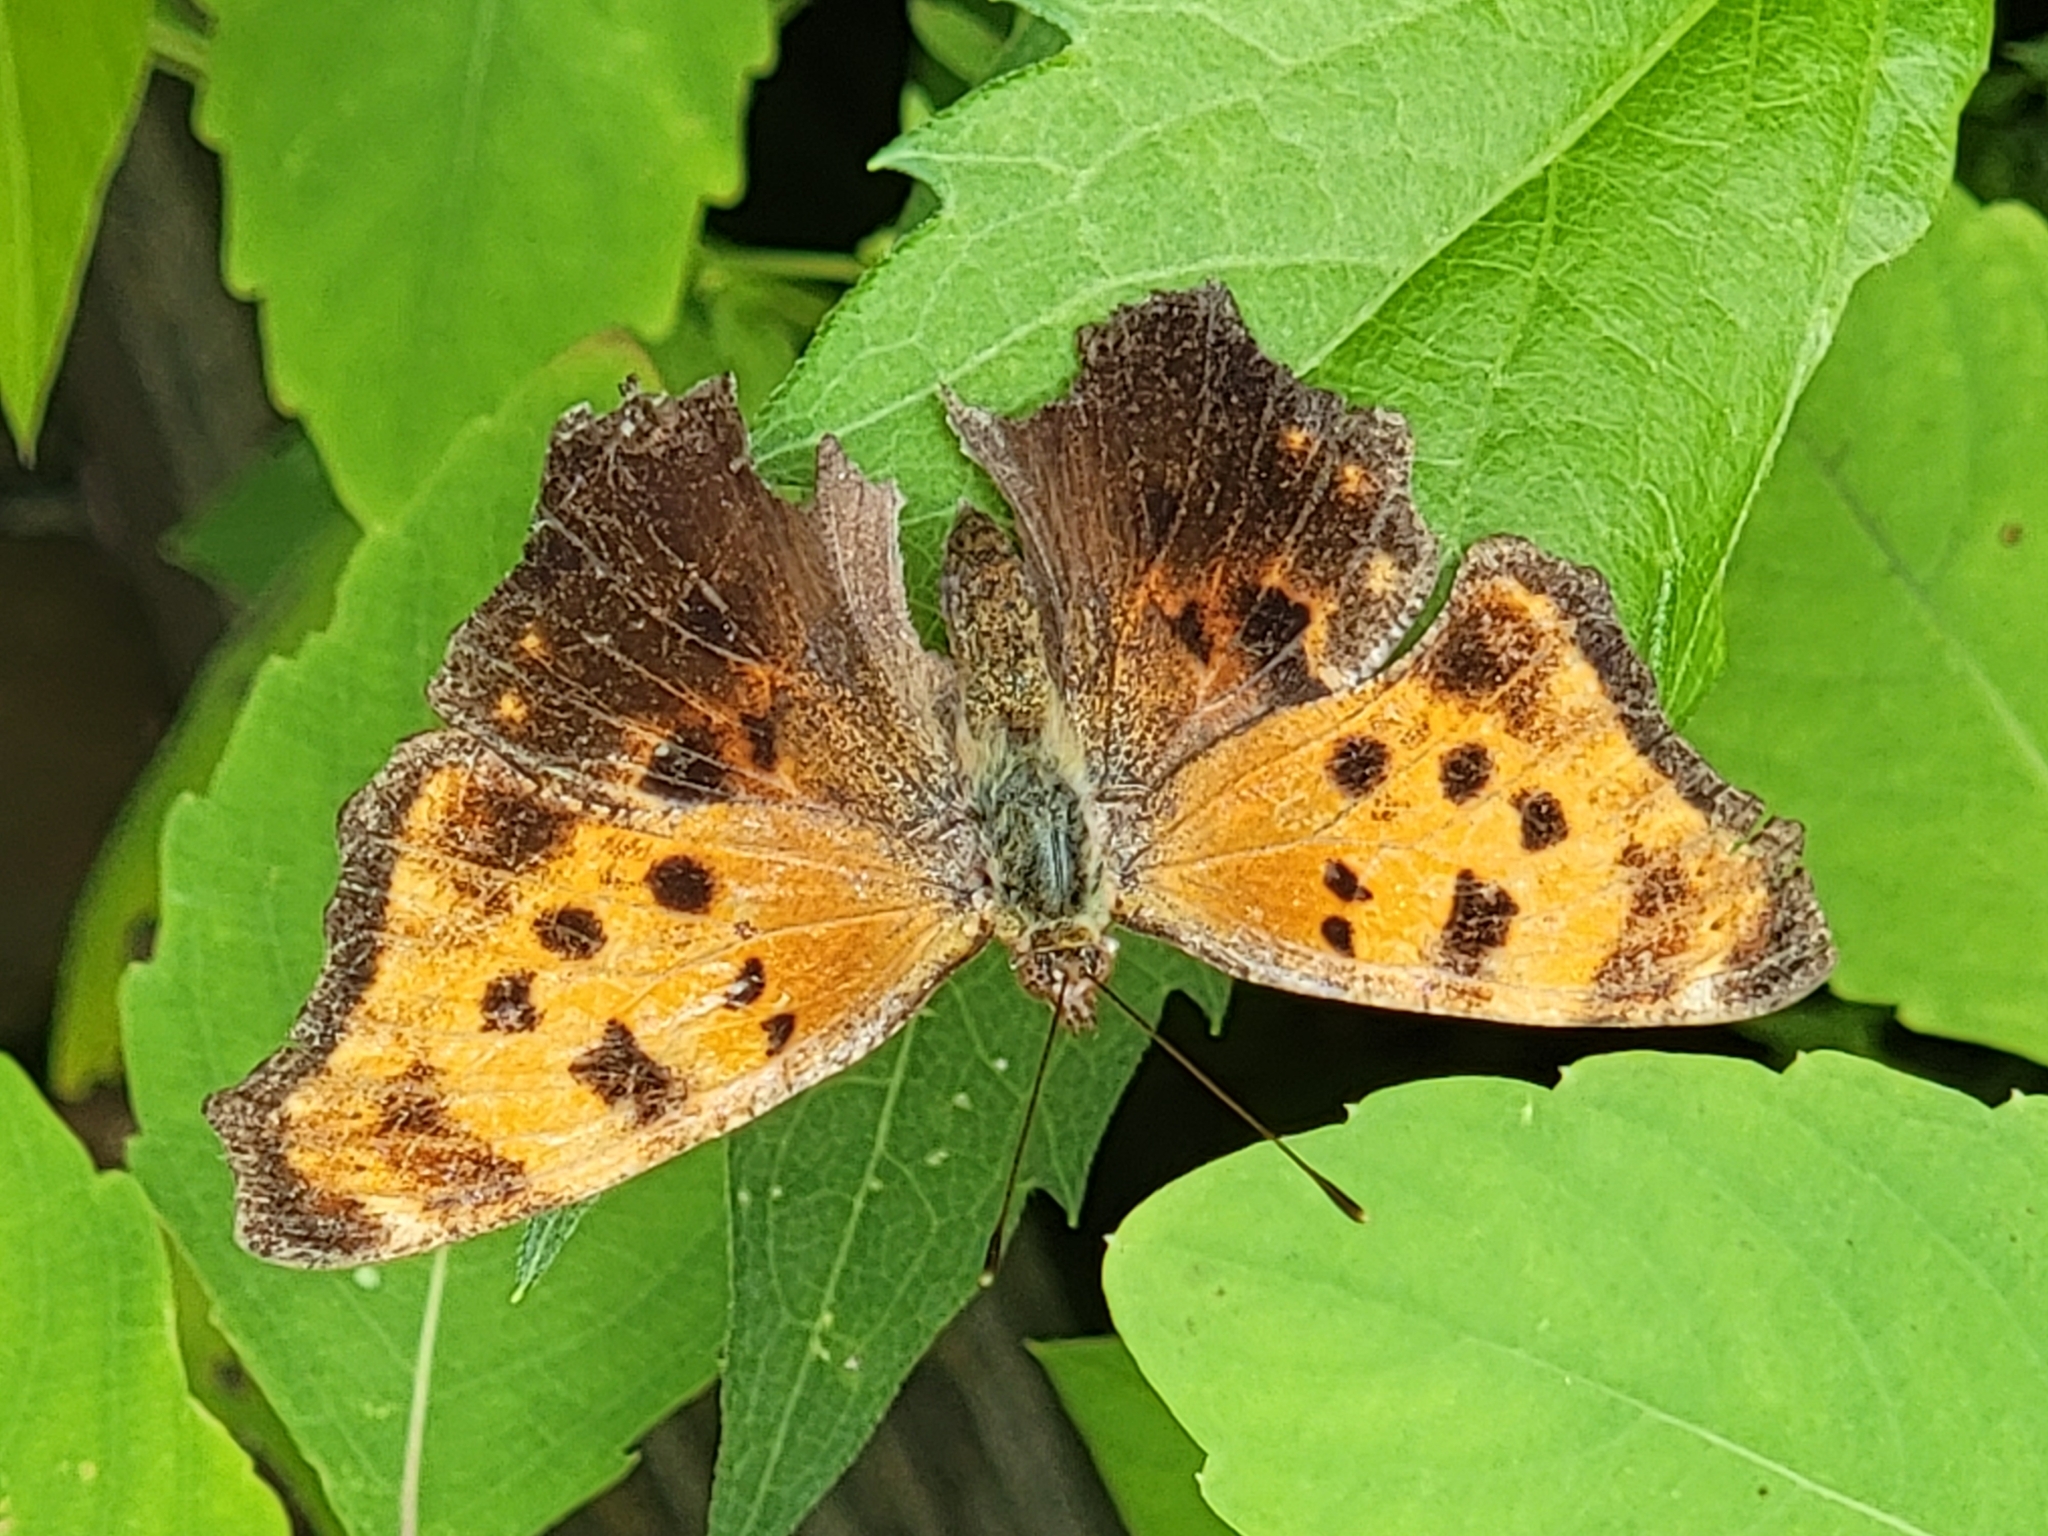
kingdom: Animalia
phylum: Arthropoda
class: Insecta
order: Lepidoptera
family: Nymphalidae
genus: Polygonia
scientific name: Polygonia comma
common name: Eastern comma
